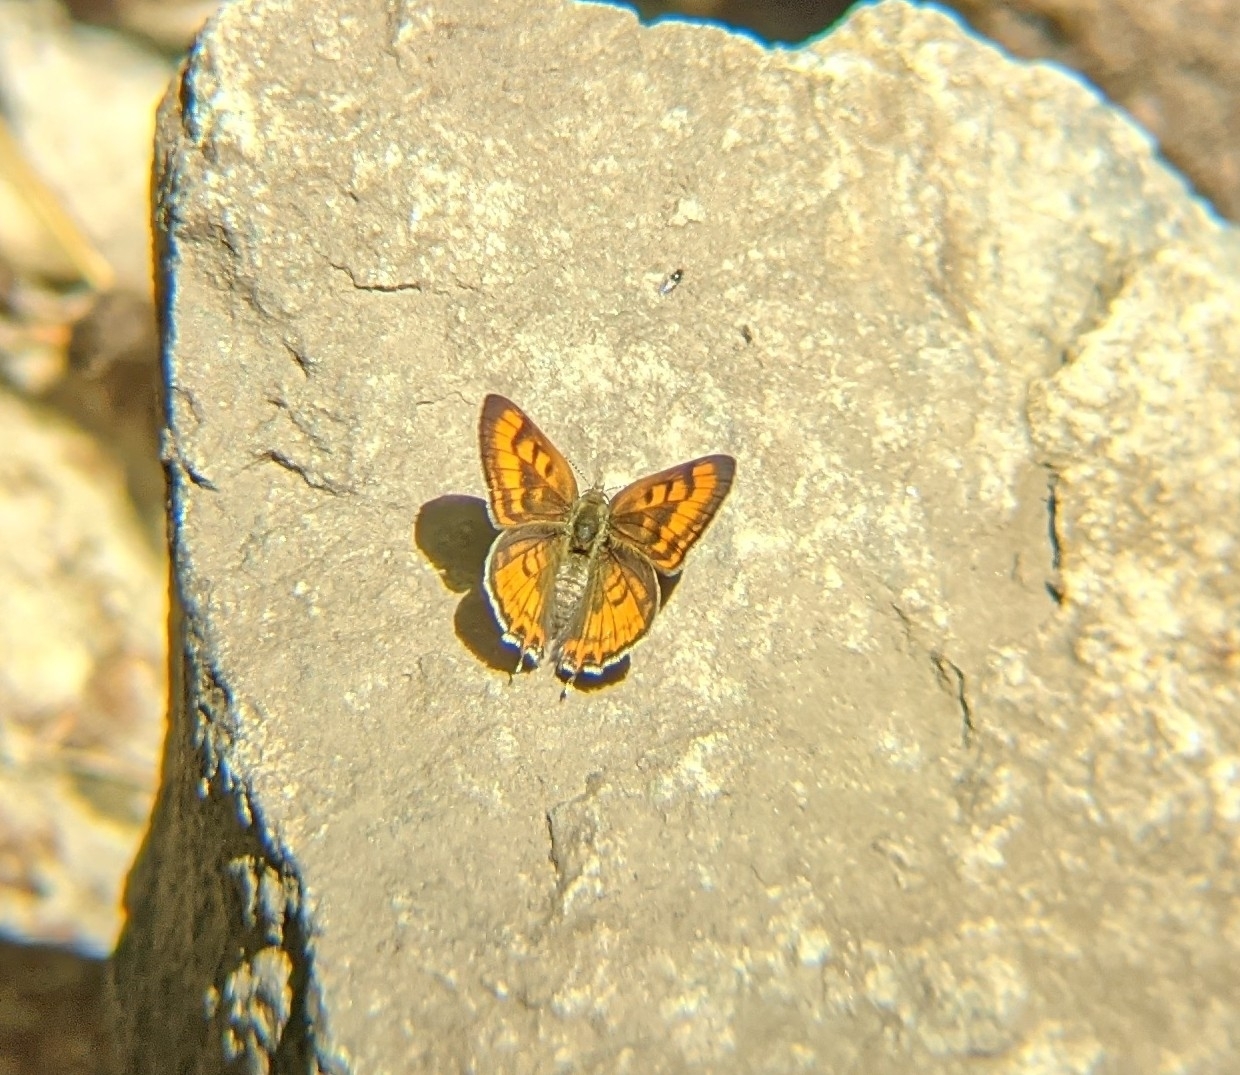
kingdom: Animalia
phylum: Arthropoda
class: Insecta
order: Lepidoptera
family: Lycaenidae
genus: Tharsalea
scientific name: Tharsalea arota
